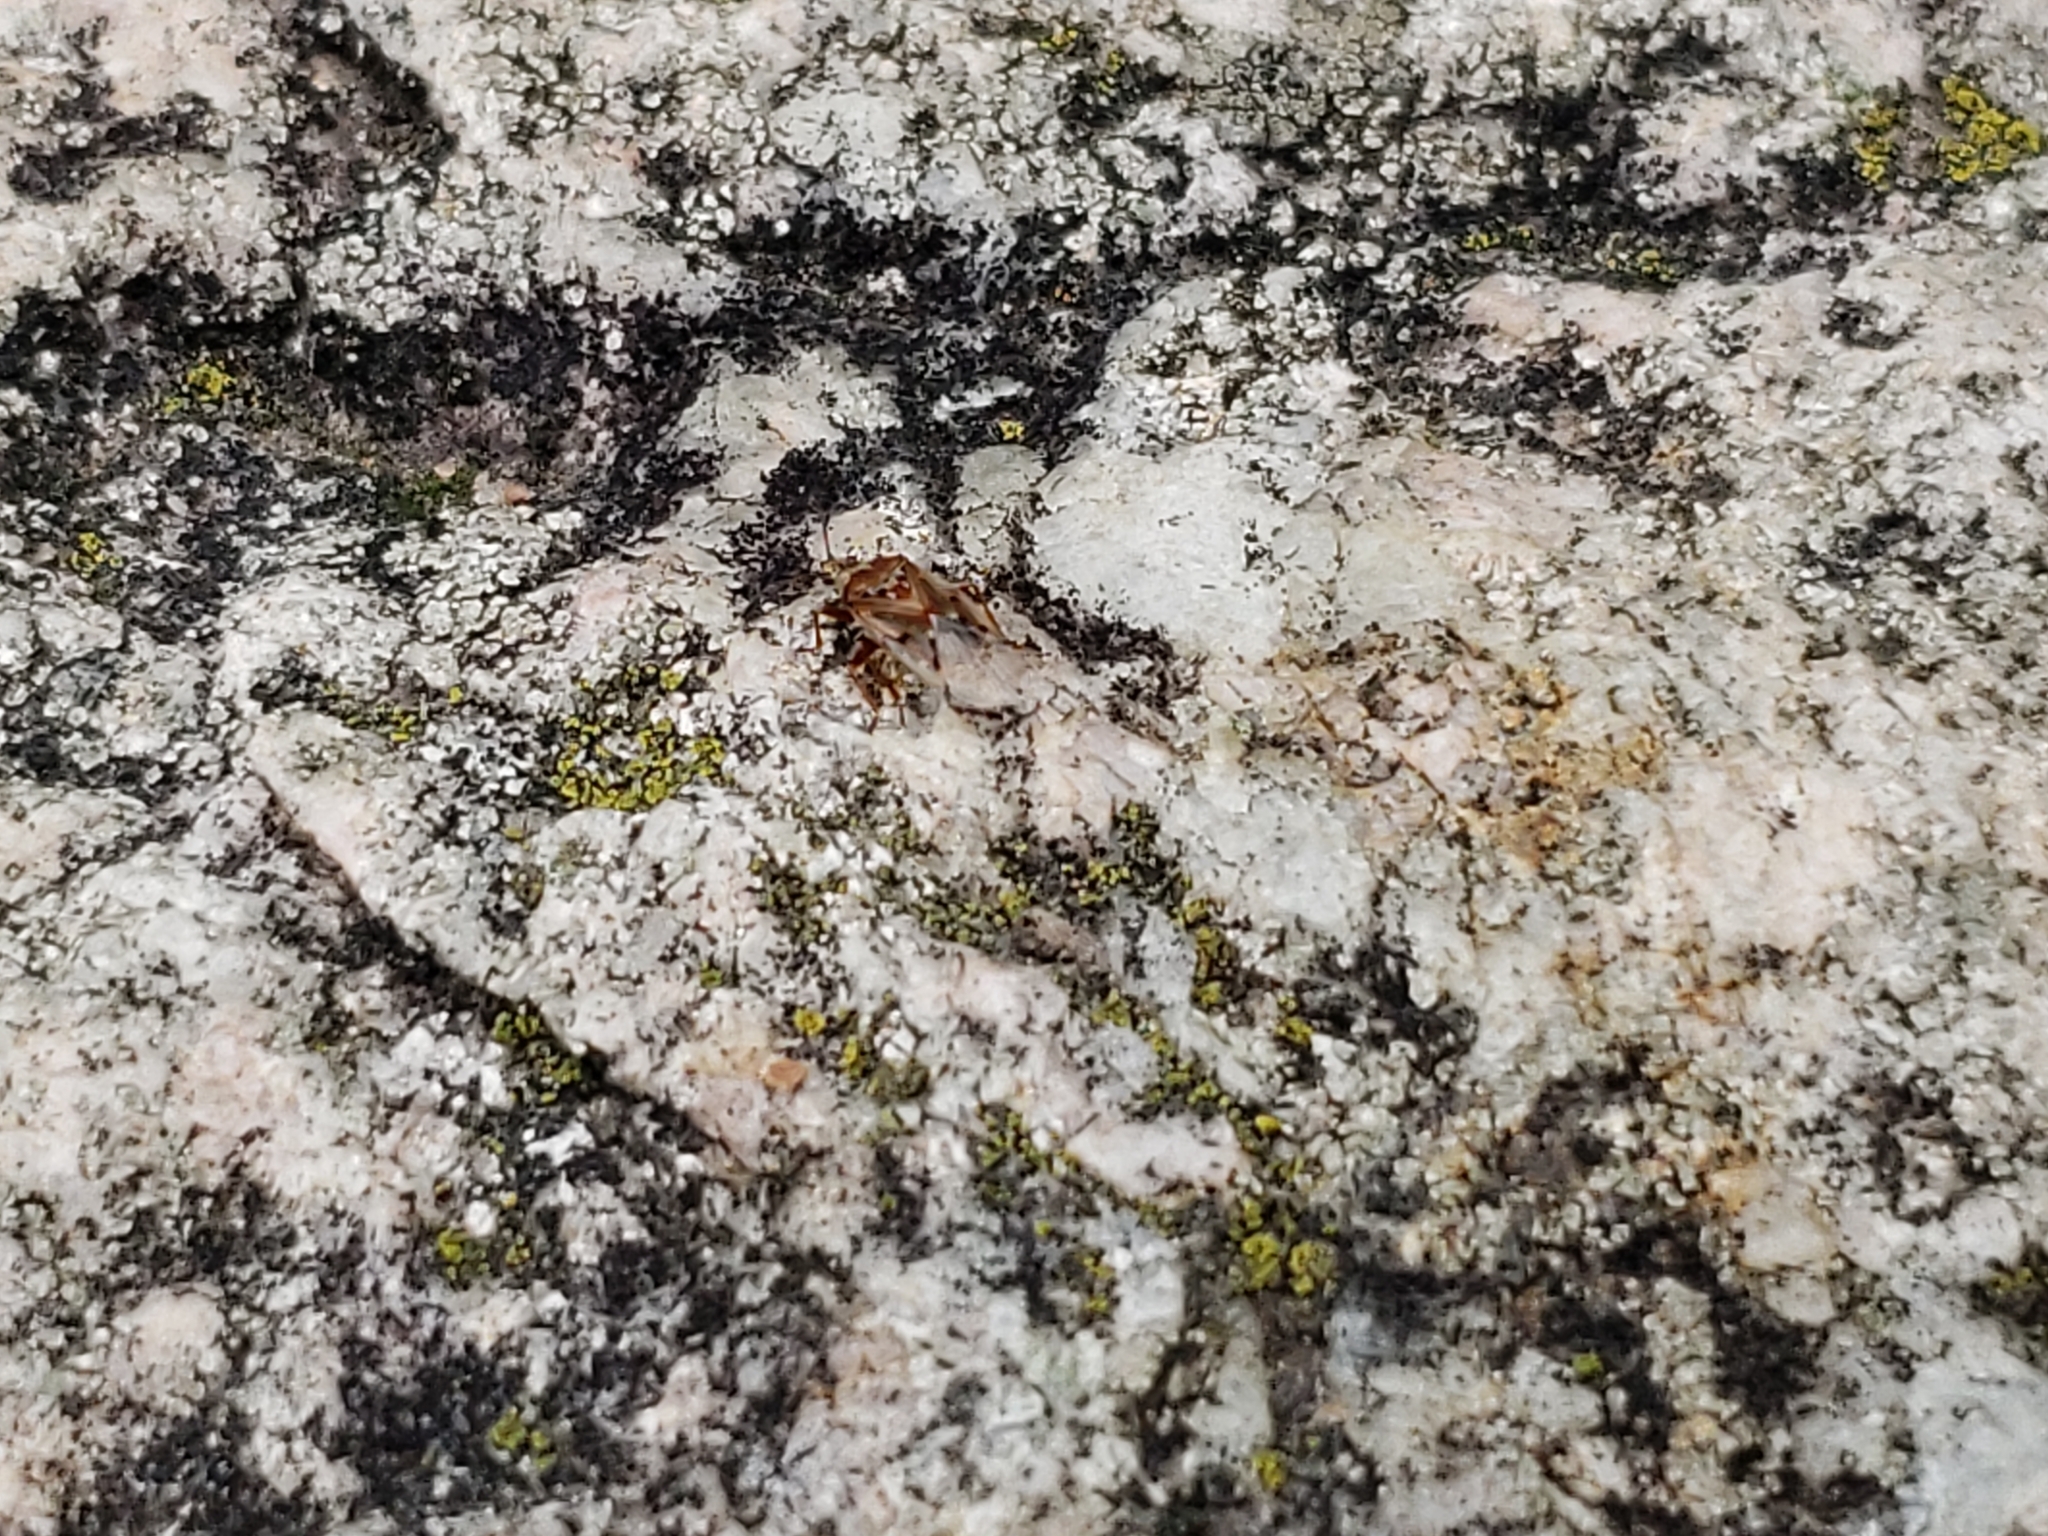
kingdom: Animalia
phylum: Arthropoda
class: Insecta
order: Hemiptera
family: Lygaeidae
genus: Kleidocerys
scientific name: Kleidocerys resedae
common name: Birch catkin bug
